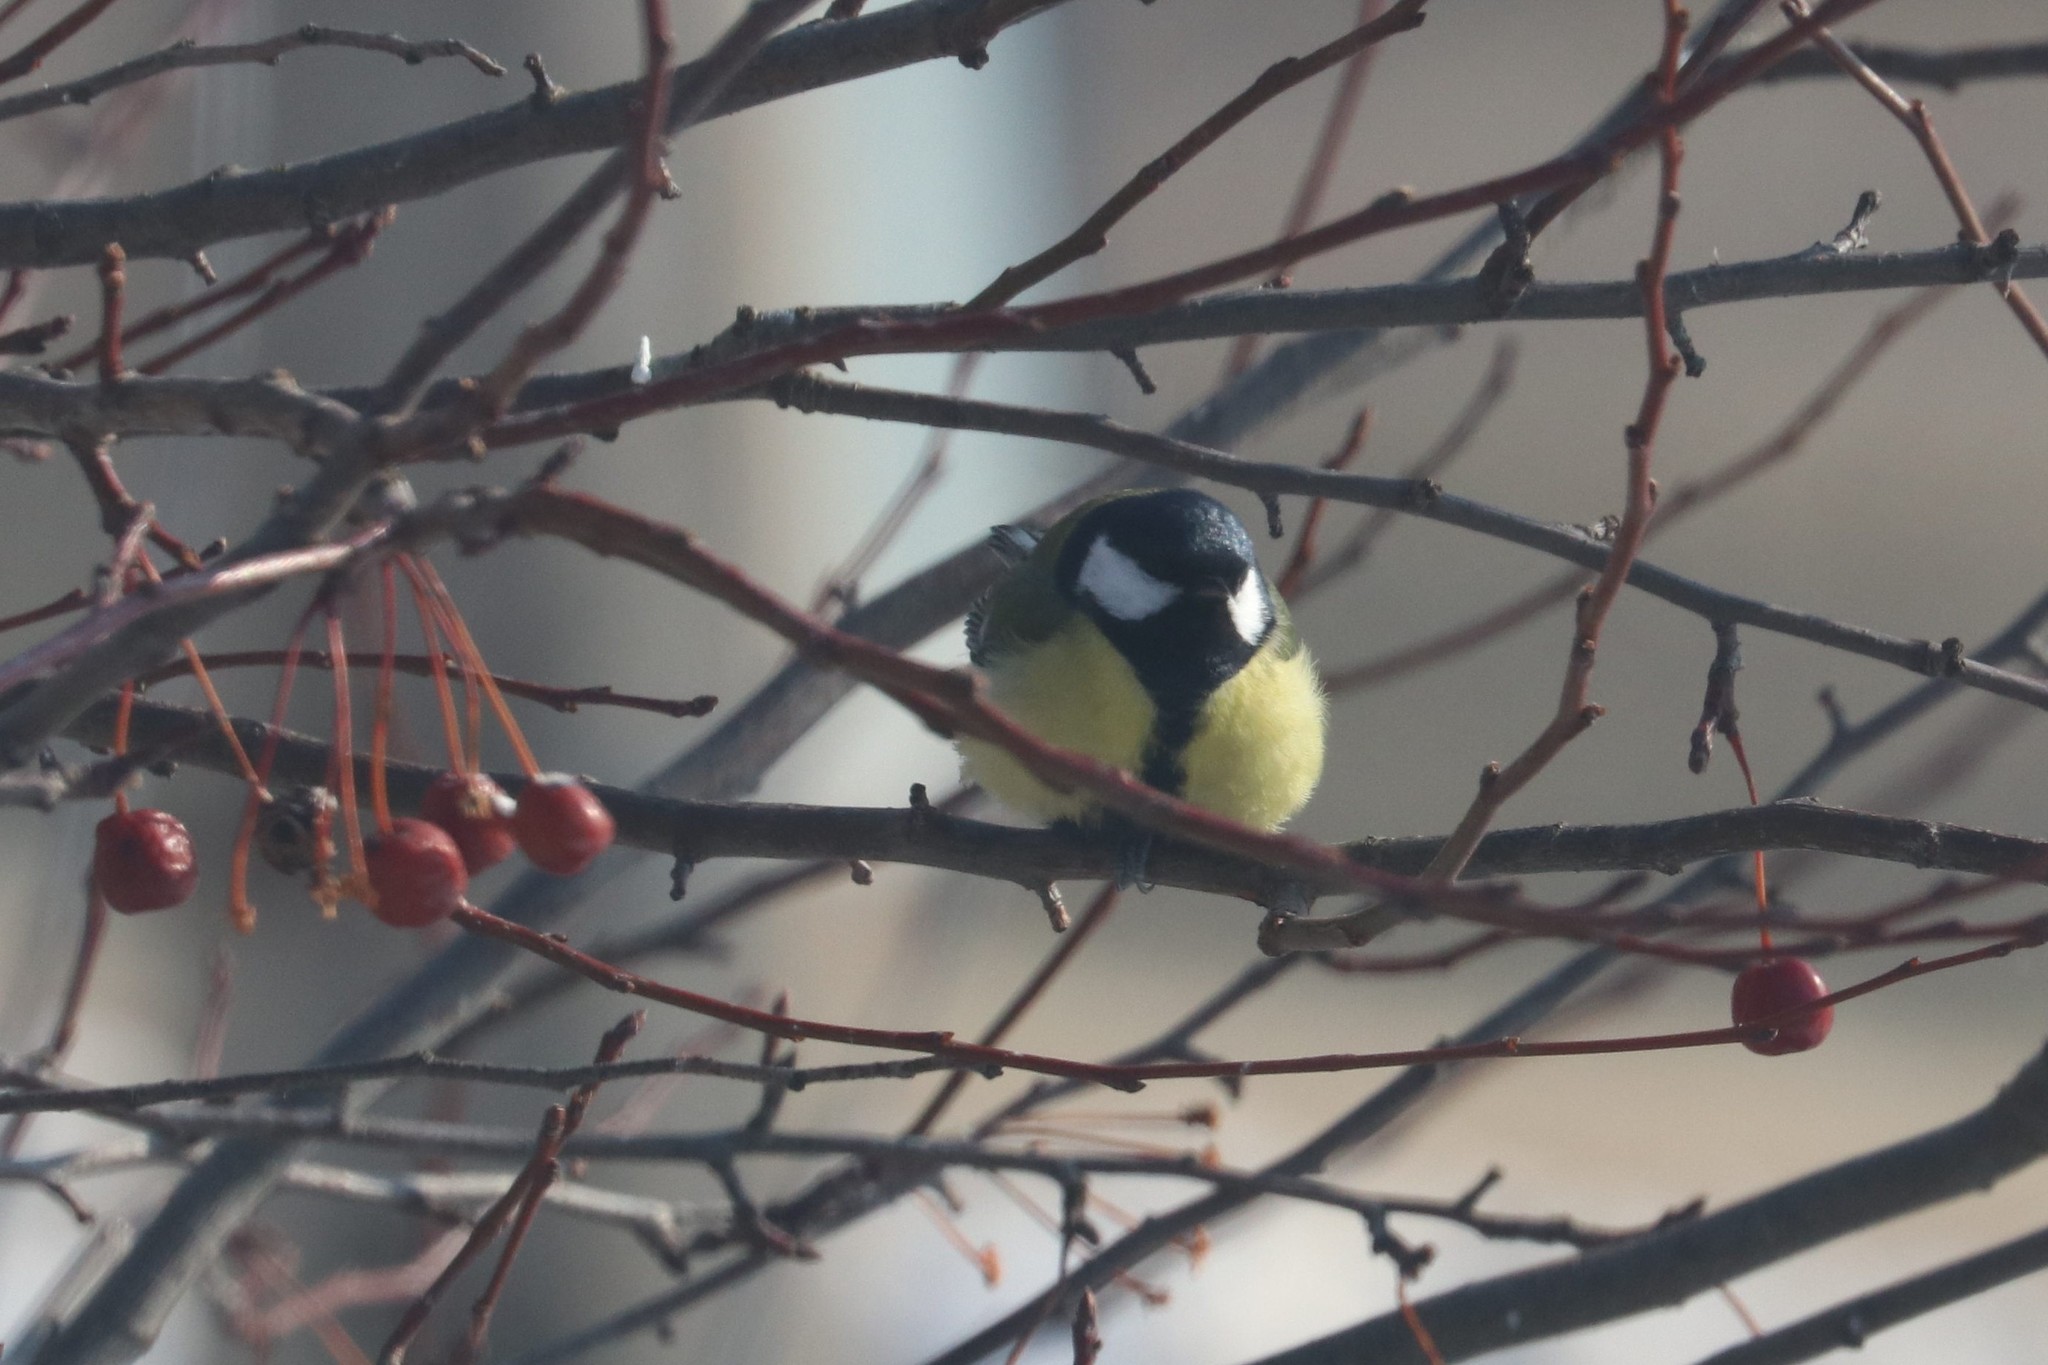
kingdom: Animalia
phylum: Chordata
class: Aves
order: Passeriformes
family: Paridae
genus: Parus
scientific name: Parus major
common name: Great tit
